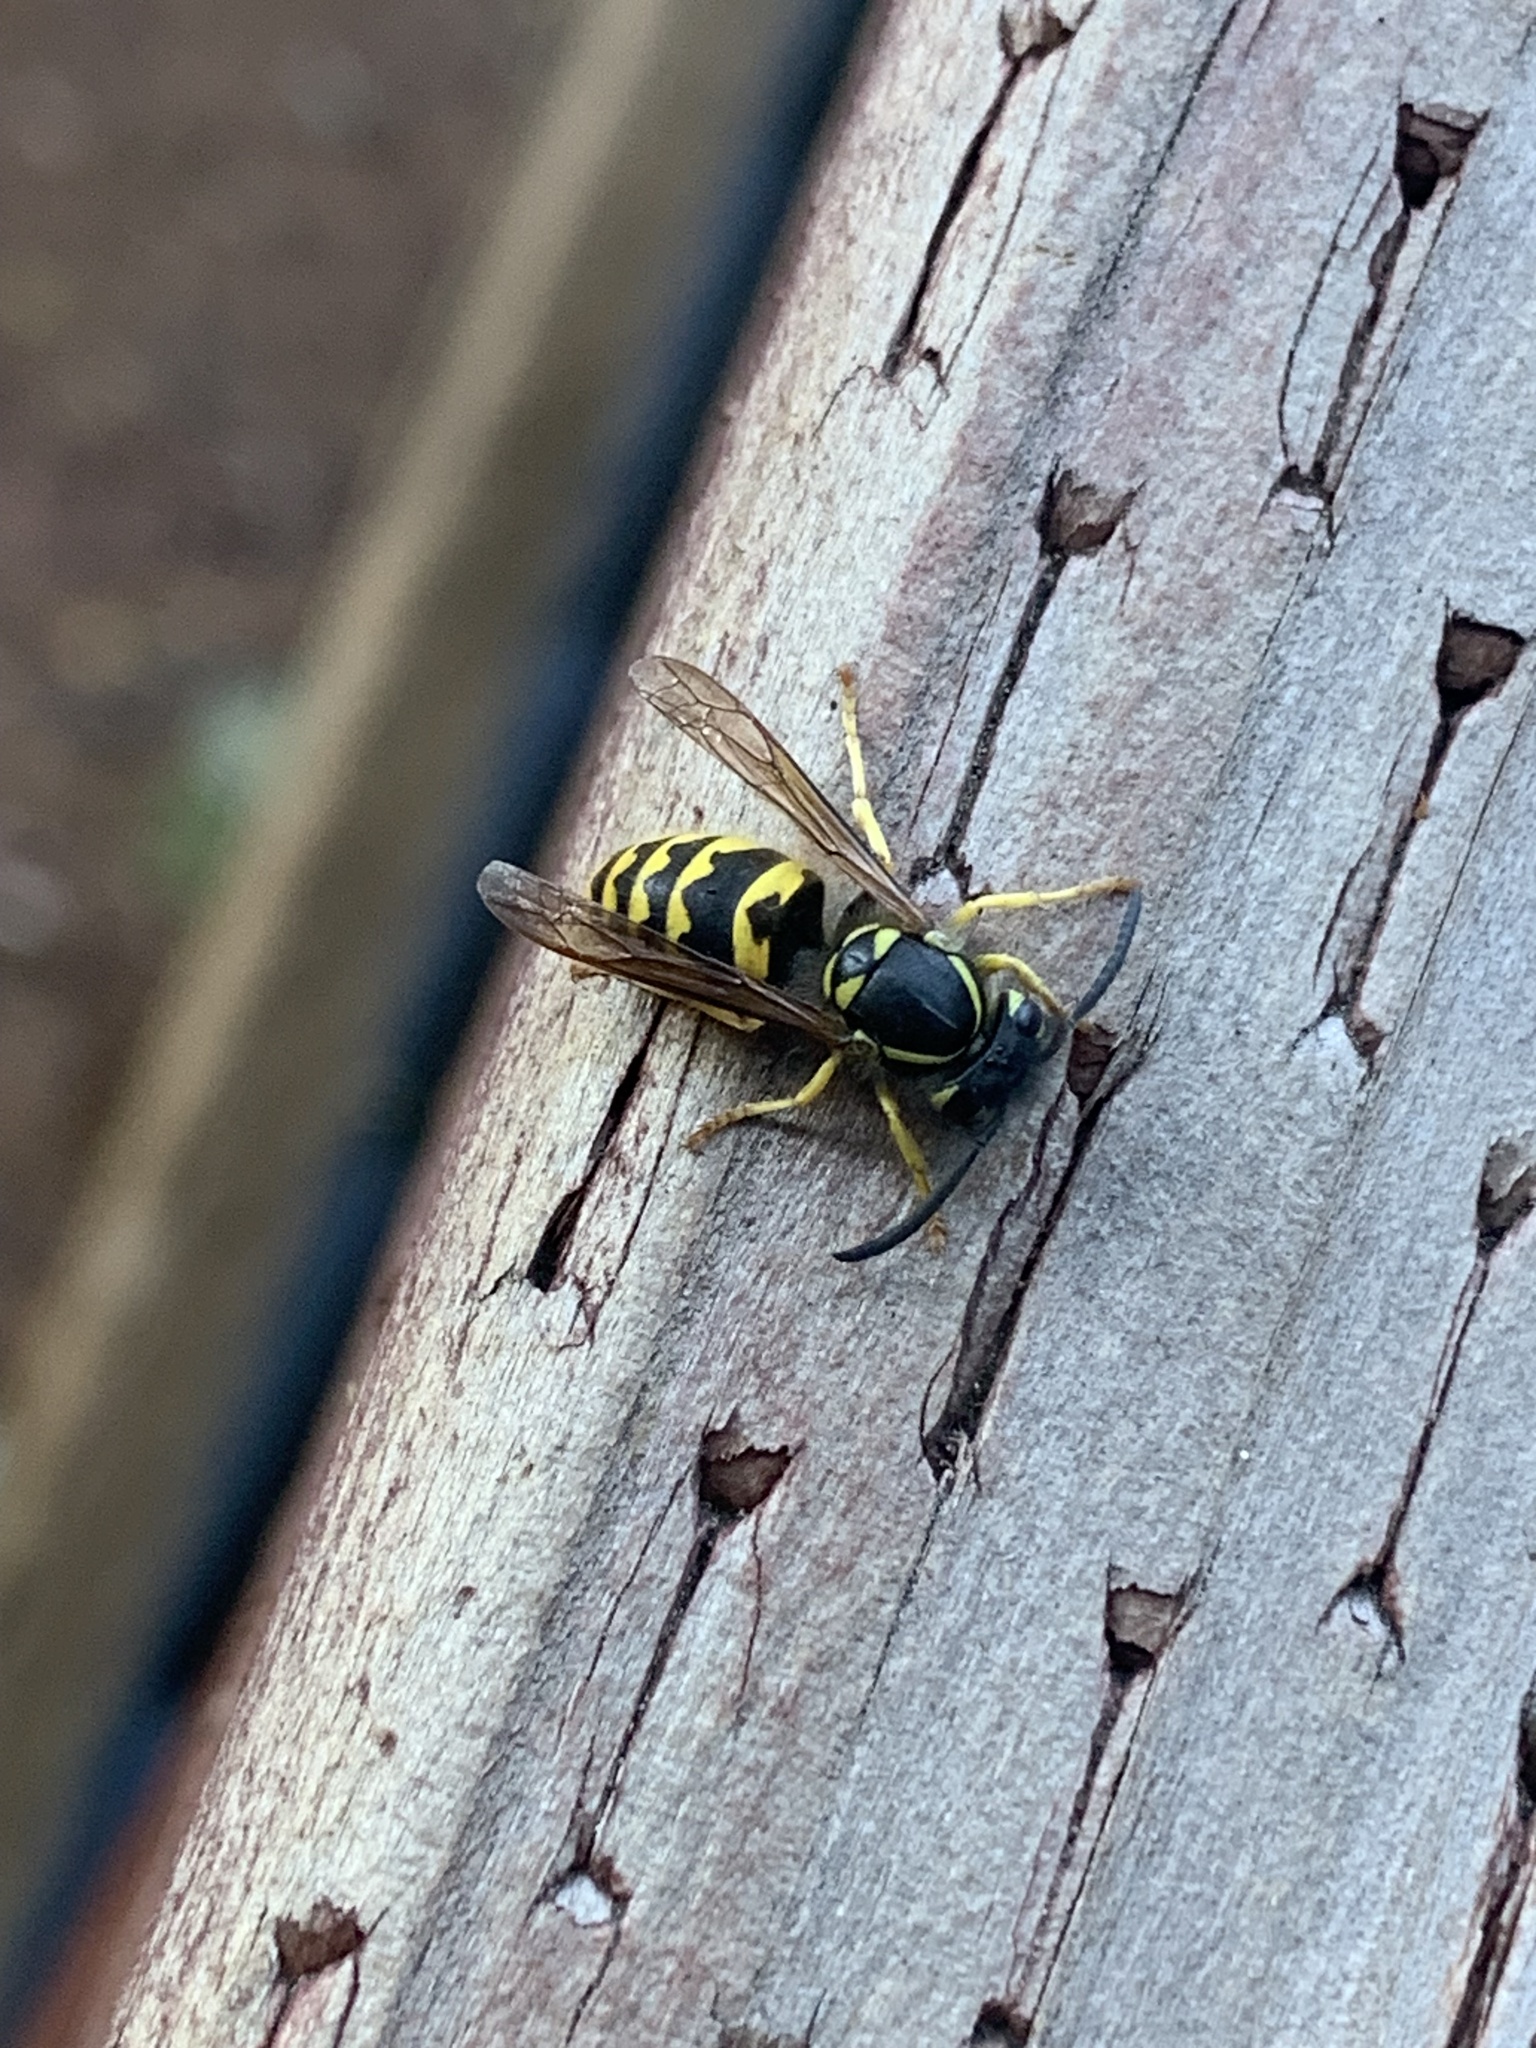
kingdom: Animalia
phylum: Arthropoda
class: Insecta
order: Hymenoptera
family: Vespidae
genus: Vespula
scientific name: Vespula pensylvanica
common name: Western yellowjacket
